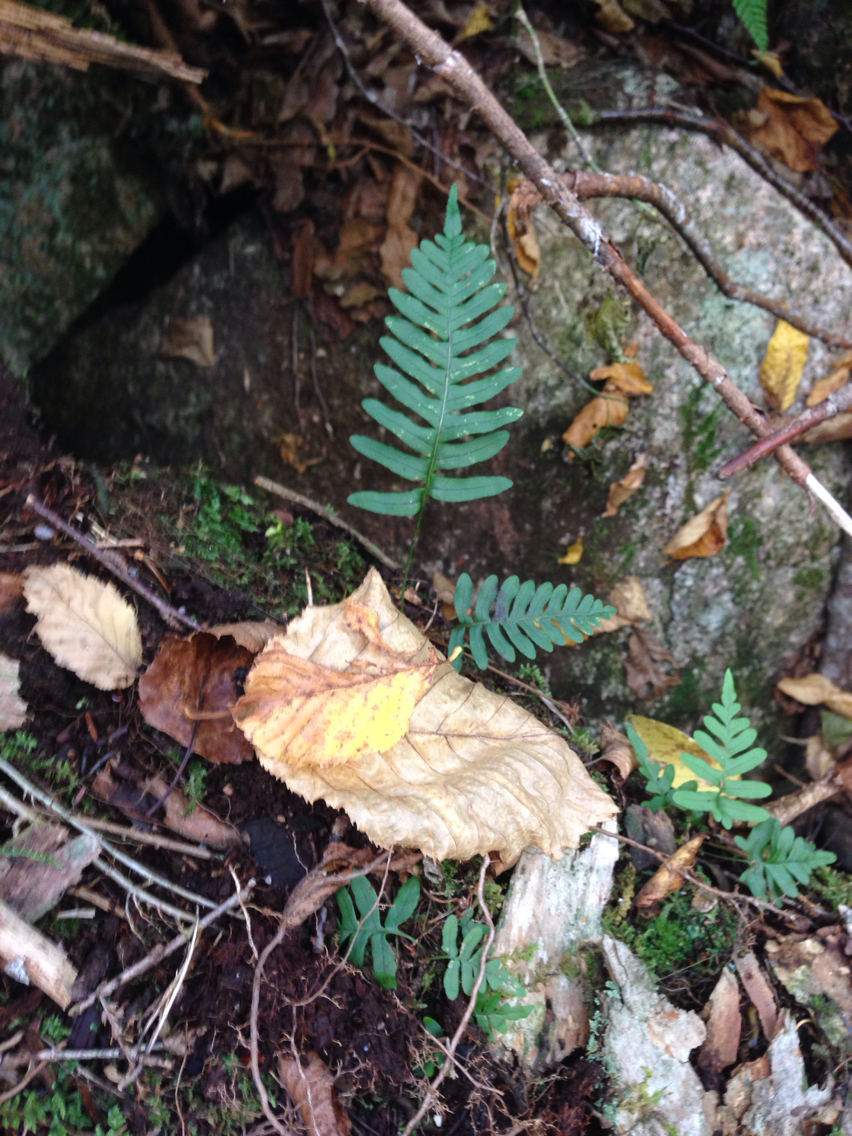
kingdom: Plantae
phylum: Tracheophyta
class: Polypodiopsida
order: Polypodiales
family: Polypodiaceae
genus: Polypodium
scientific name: Polypodium virginianum
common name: American wall fern
